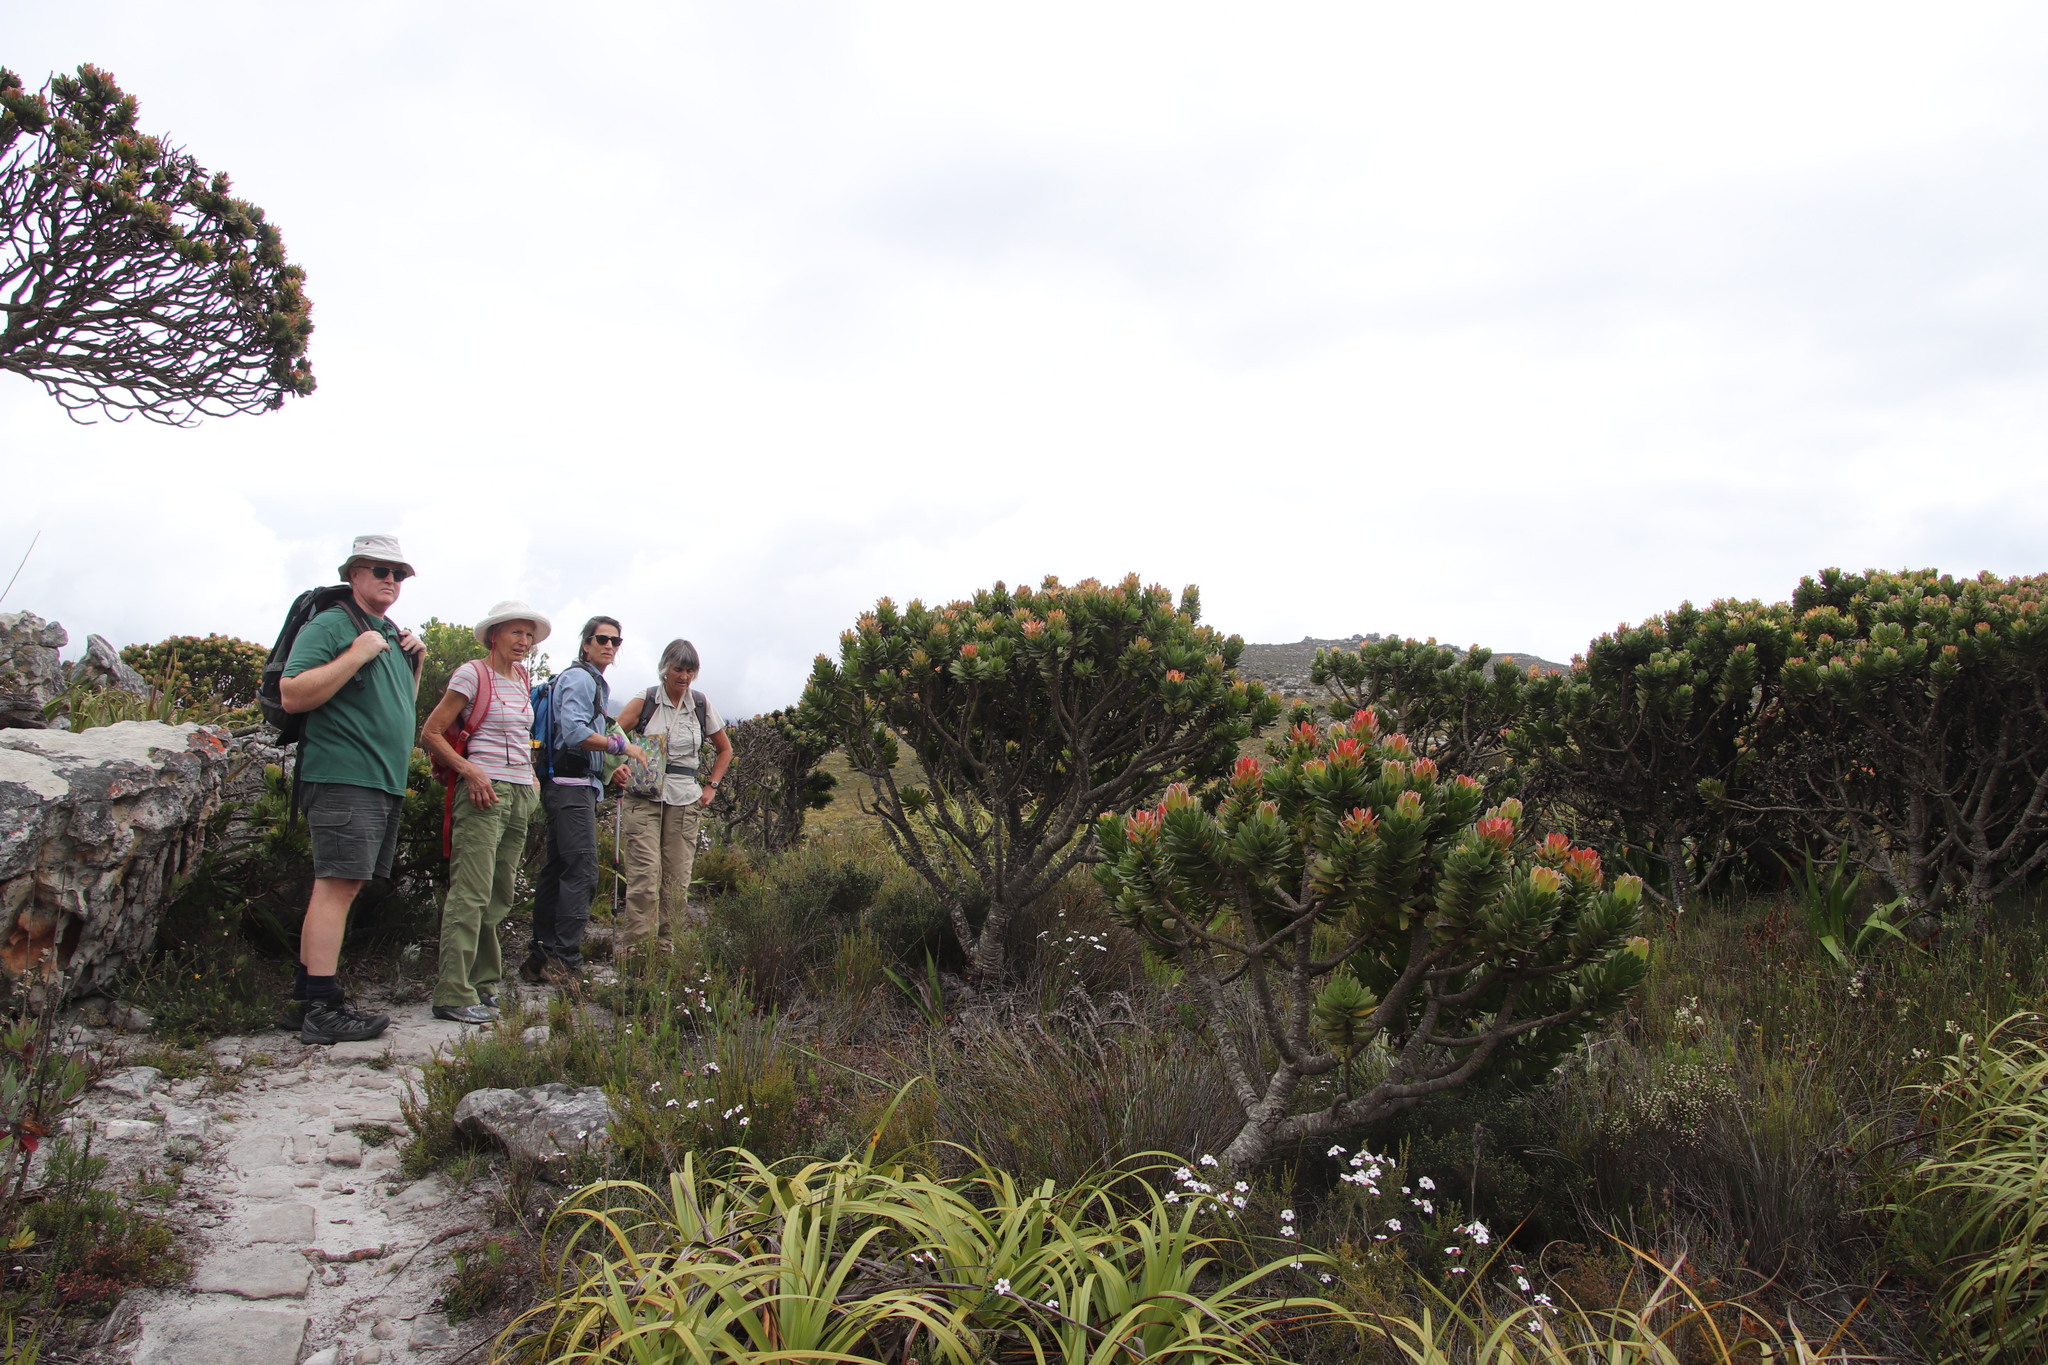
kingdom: Plantae
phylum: Tracheophyta
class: Magnoliopsida
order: Proteales
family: Proteaceae
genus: Mimetes
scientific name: Mimetes fimbriifolius
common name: Fringed bottlebrush
